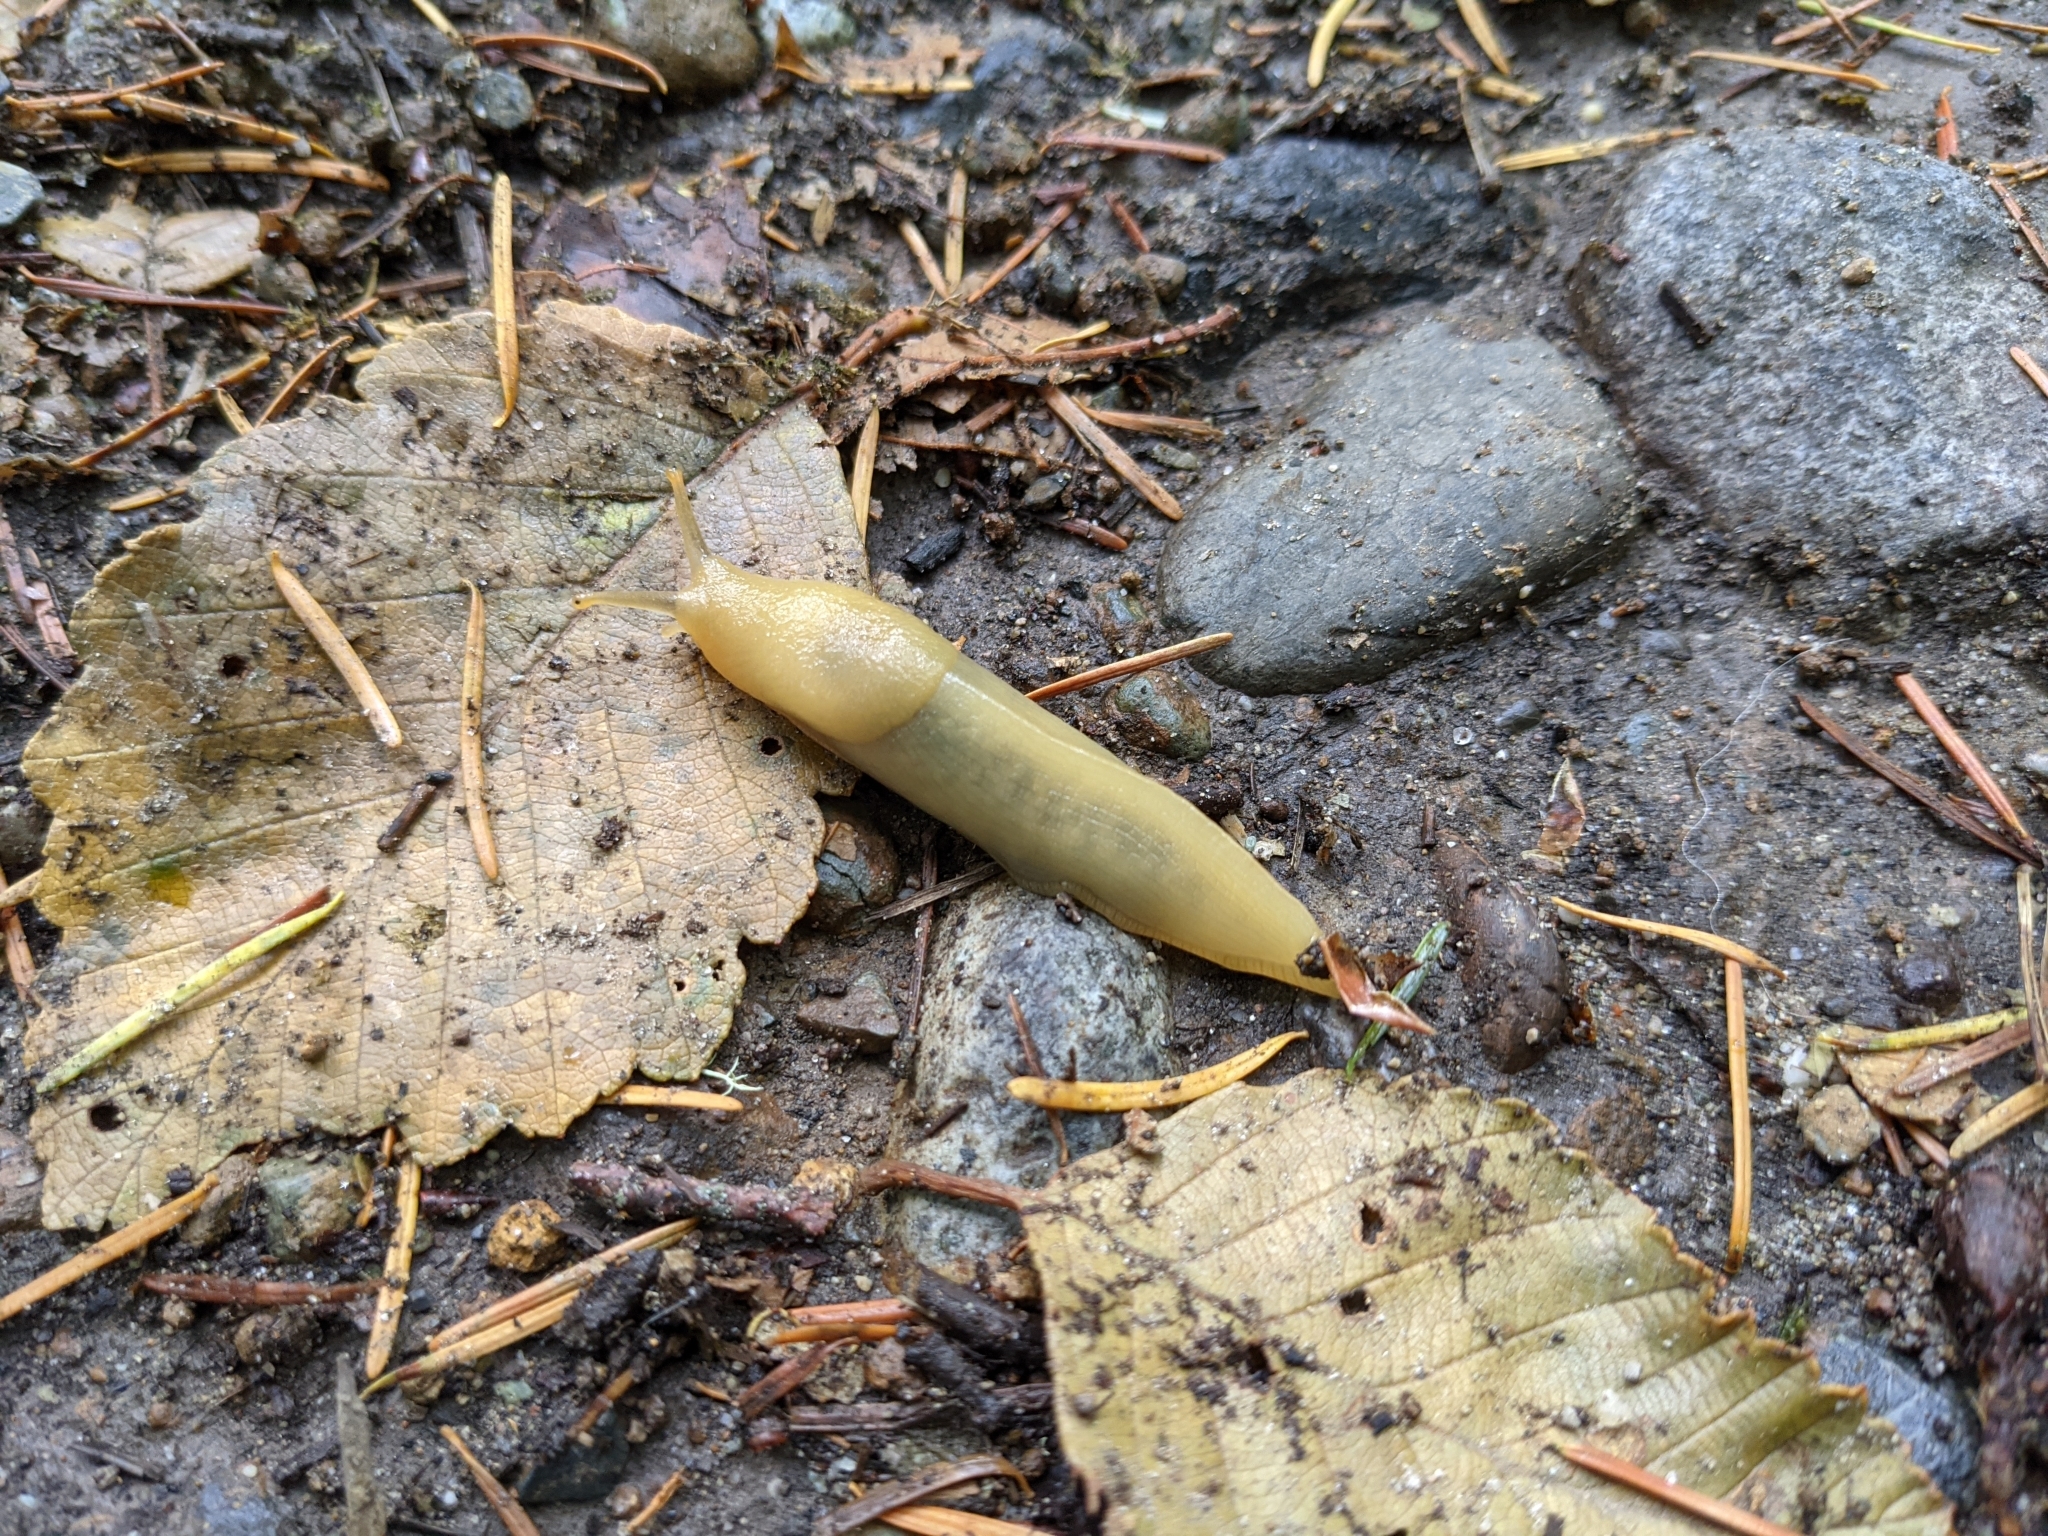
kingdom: Animalia
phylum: Mollusca
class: Gastropoda
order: Stylommatophora
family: Ariolimacidae
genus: Ariolimax
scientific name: Ariolimax columbianus
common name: Pacific banana slug
